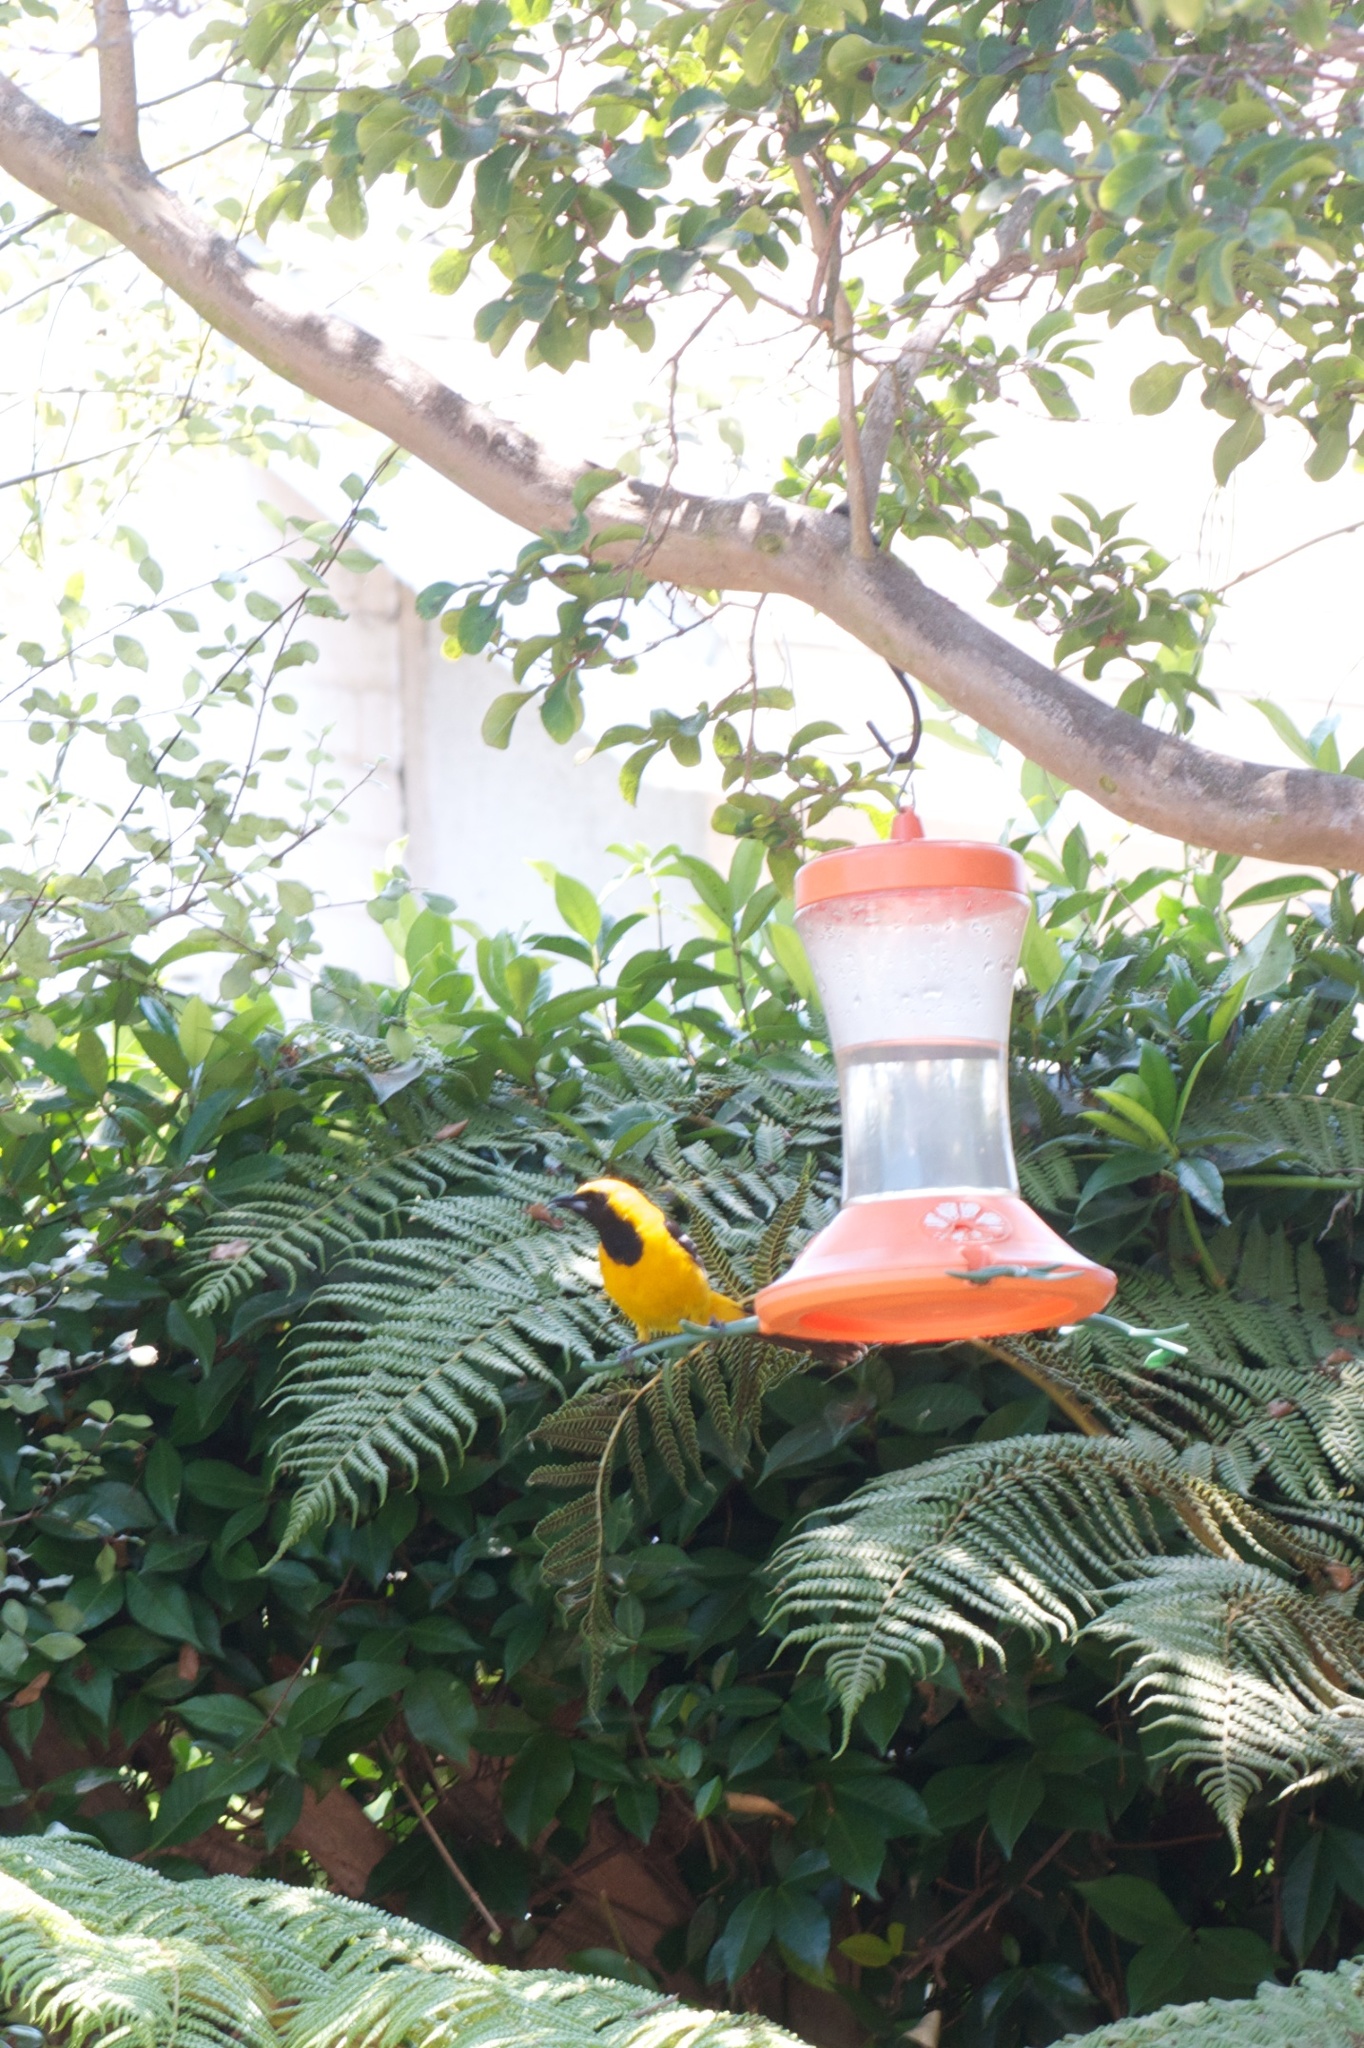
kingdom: Animalia
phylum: Chordata
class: Aves
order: Passeriformes
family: Icteridae
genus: Icterus
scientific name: Icterus cucullatus
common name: Hooded oriole
